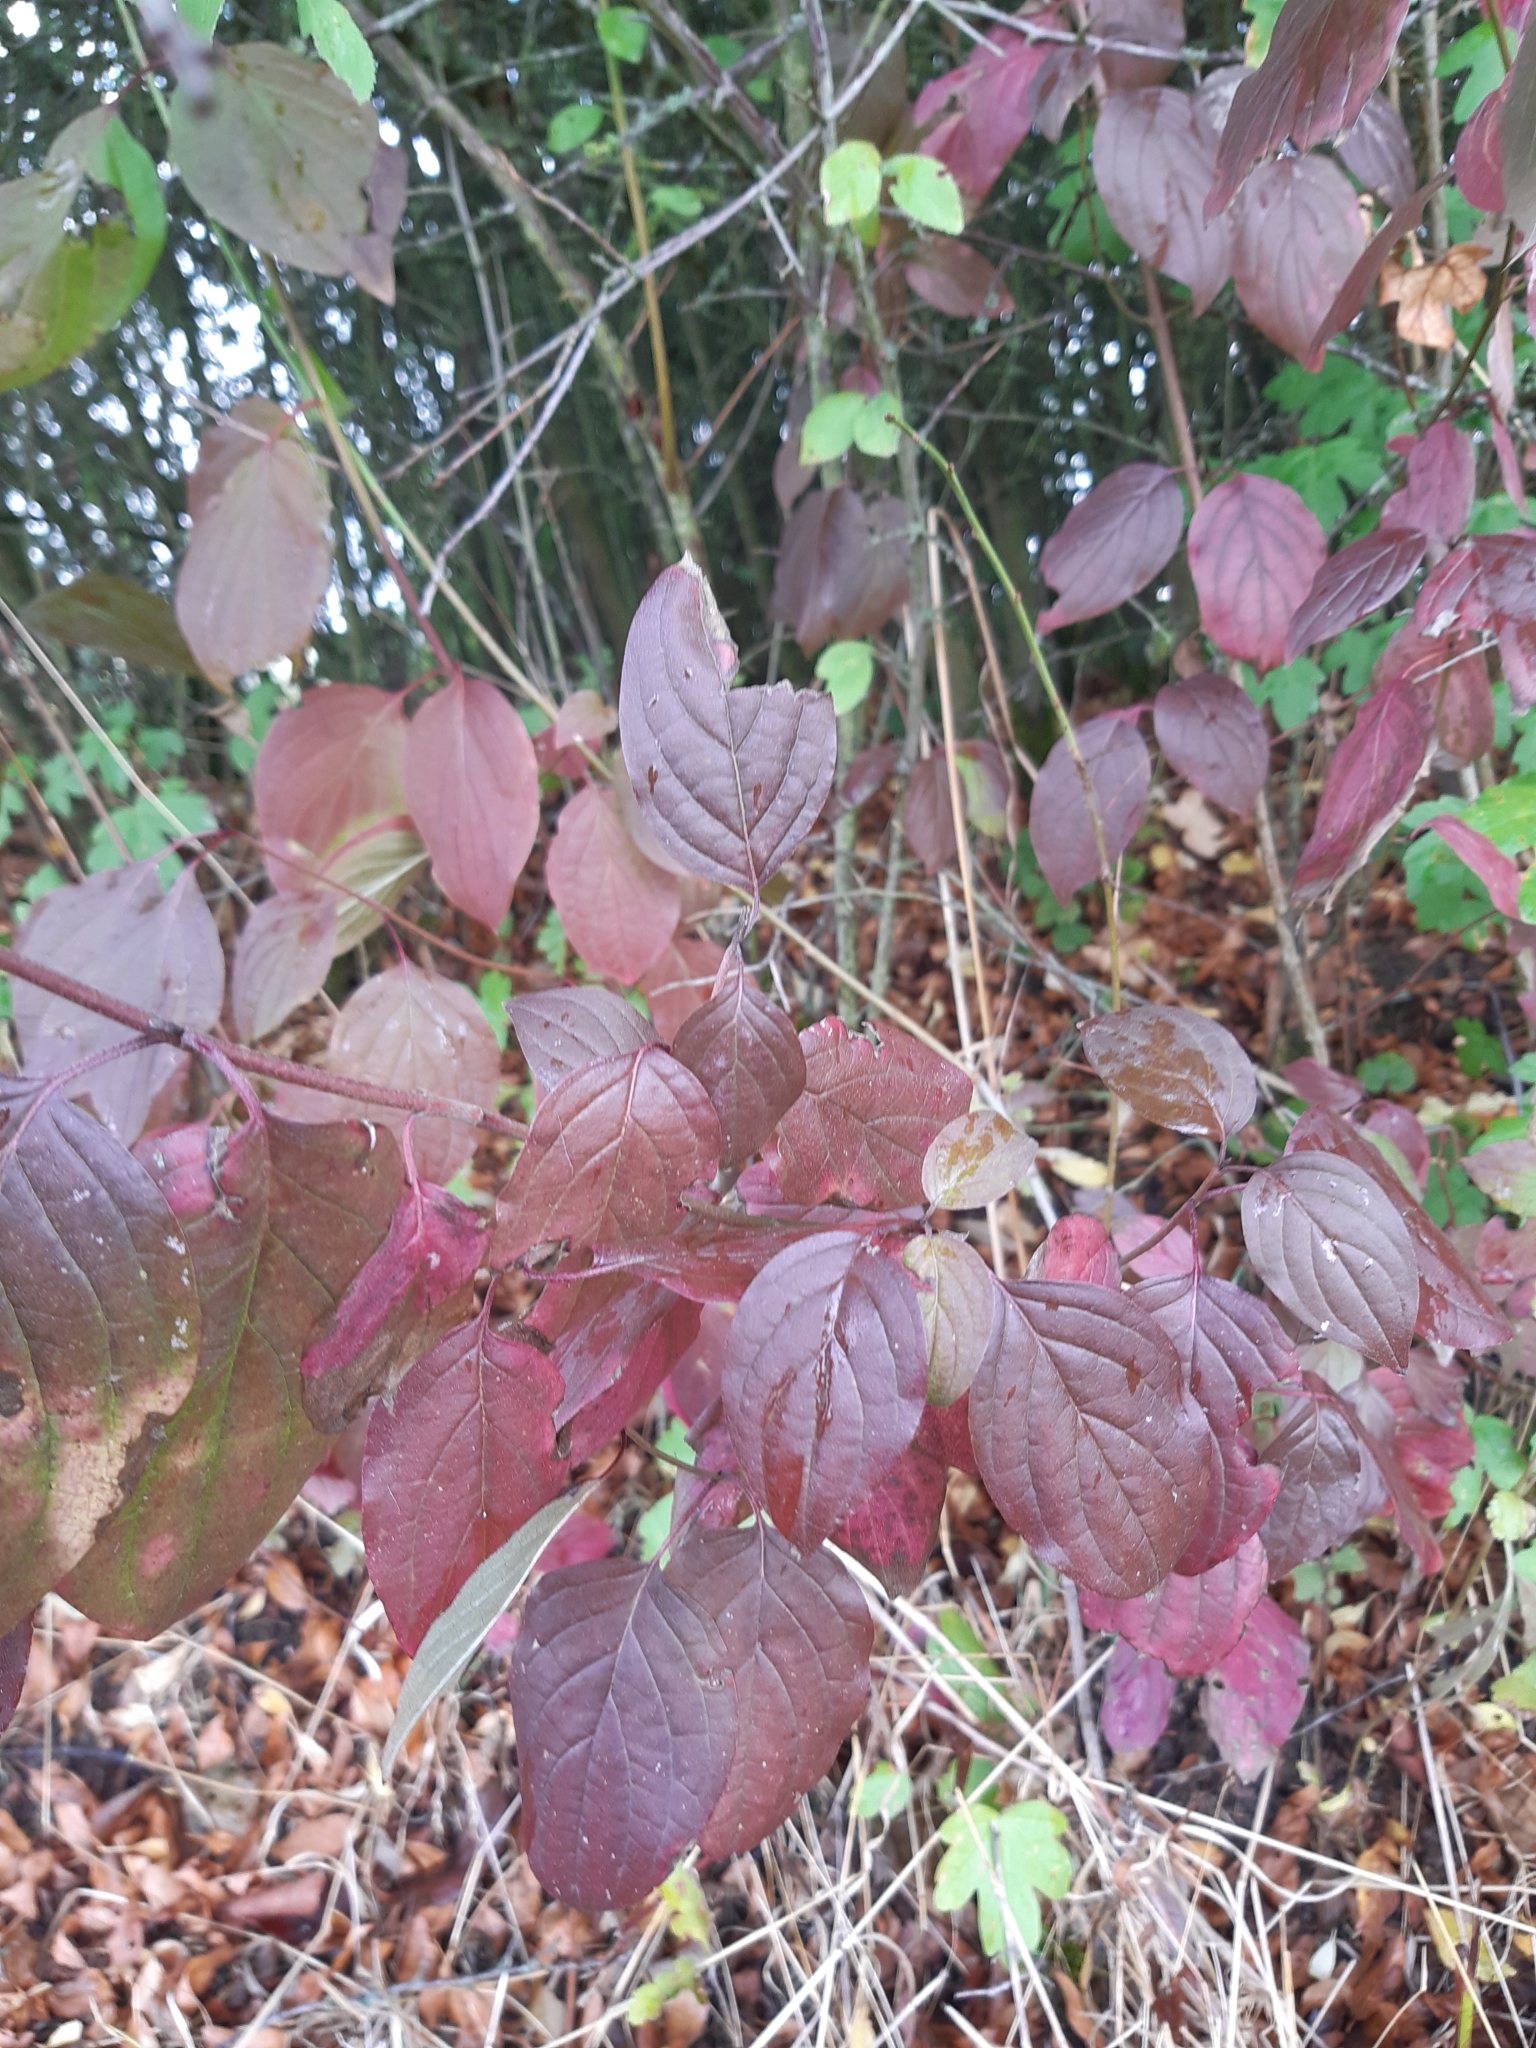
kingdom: Plantae
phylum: Tracheophyta
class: Magnoliopsida
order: Cornales
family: Cornaceae
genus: Cornus
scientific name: Cornus sanguinea
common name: Dogwood
